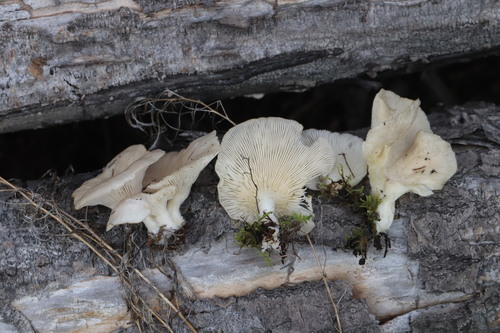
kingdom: Fungi
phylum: Basidiomycota
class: Agaricomycetes
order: Agaricales
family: Pleurotaceae
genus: Pleurotus
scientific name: Pleurotus pulmonarius
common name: Pale oyster
